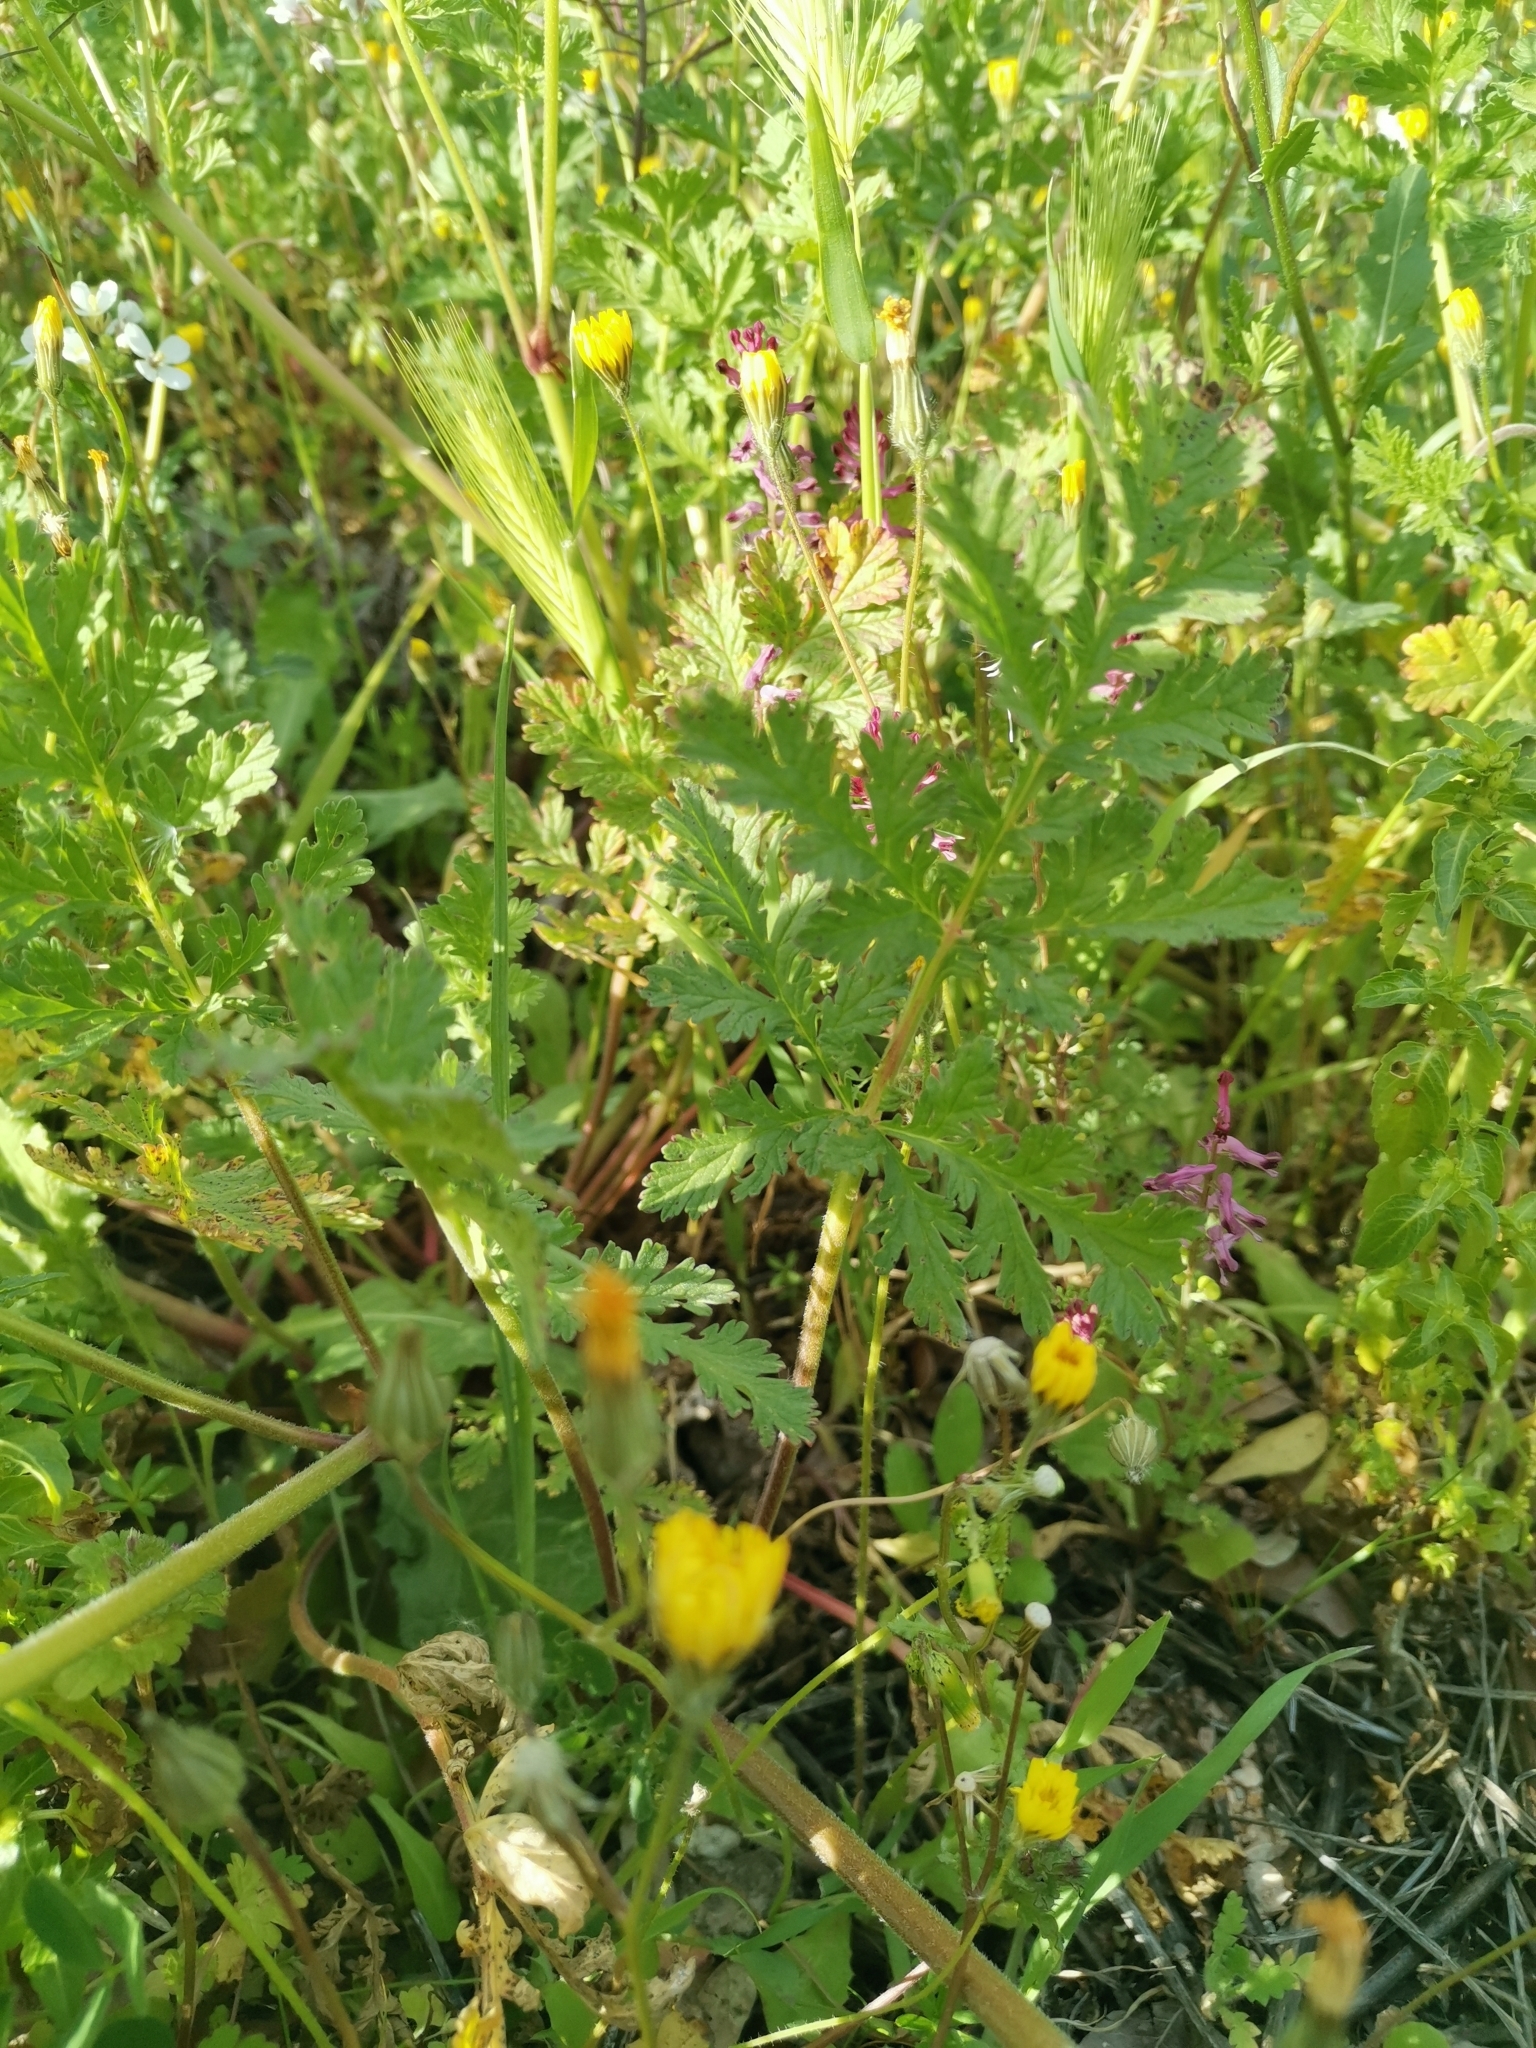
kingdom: Plantae
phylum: Tracheophyta
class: Magnoliopsida
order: Geraniales
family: Geraniaceae
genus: Erodium
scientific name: Erodium ciconium
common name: Common stork's bill
